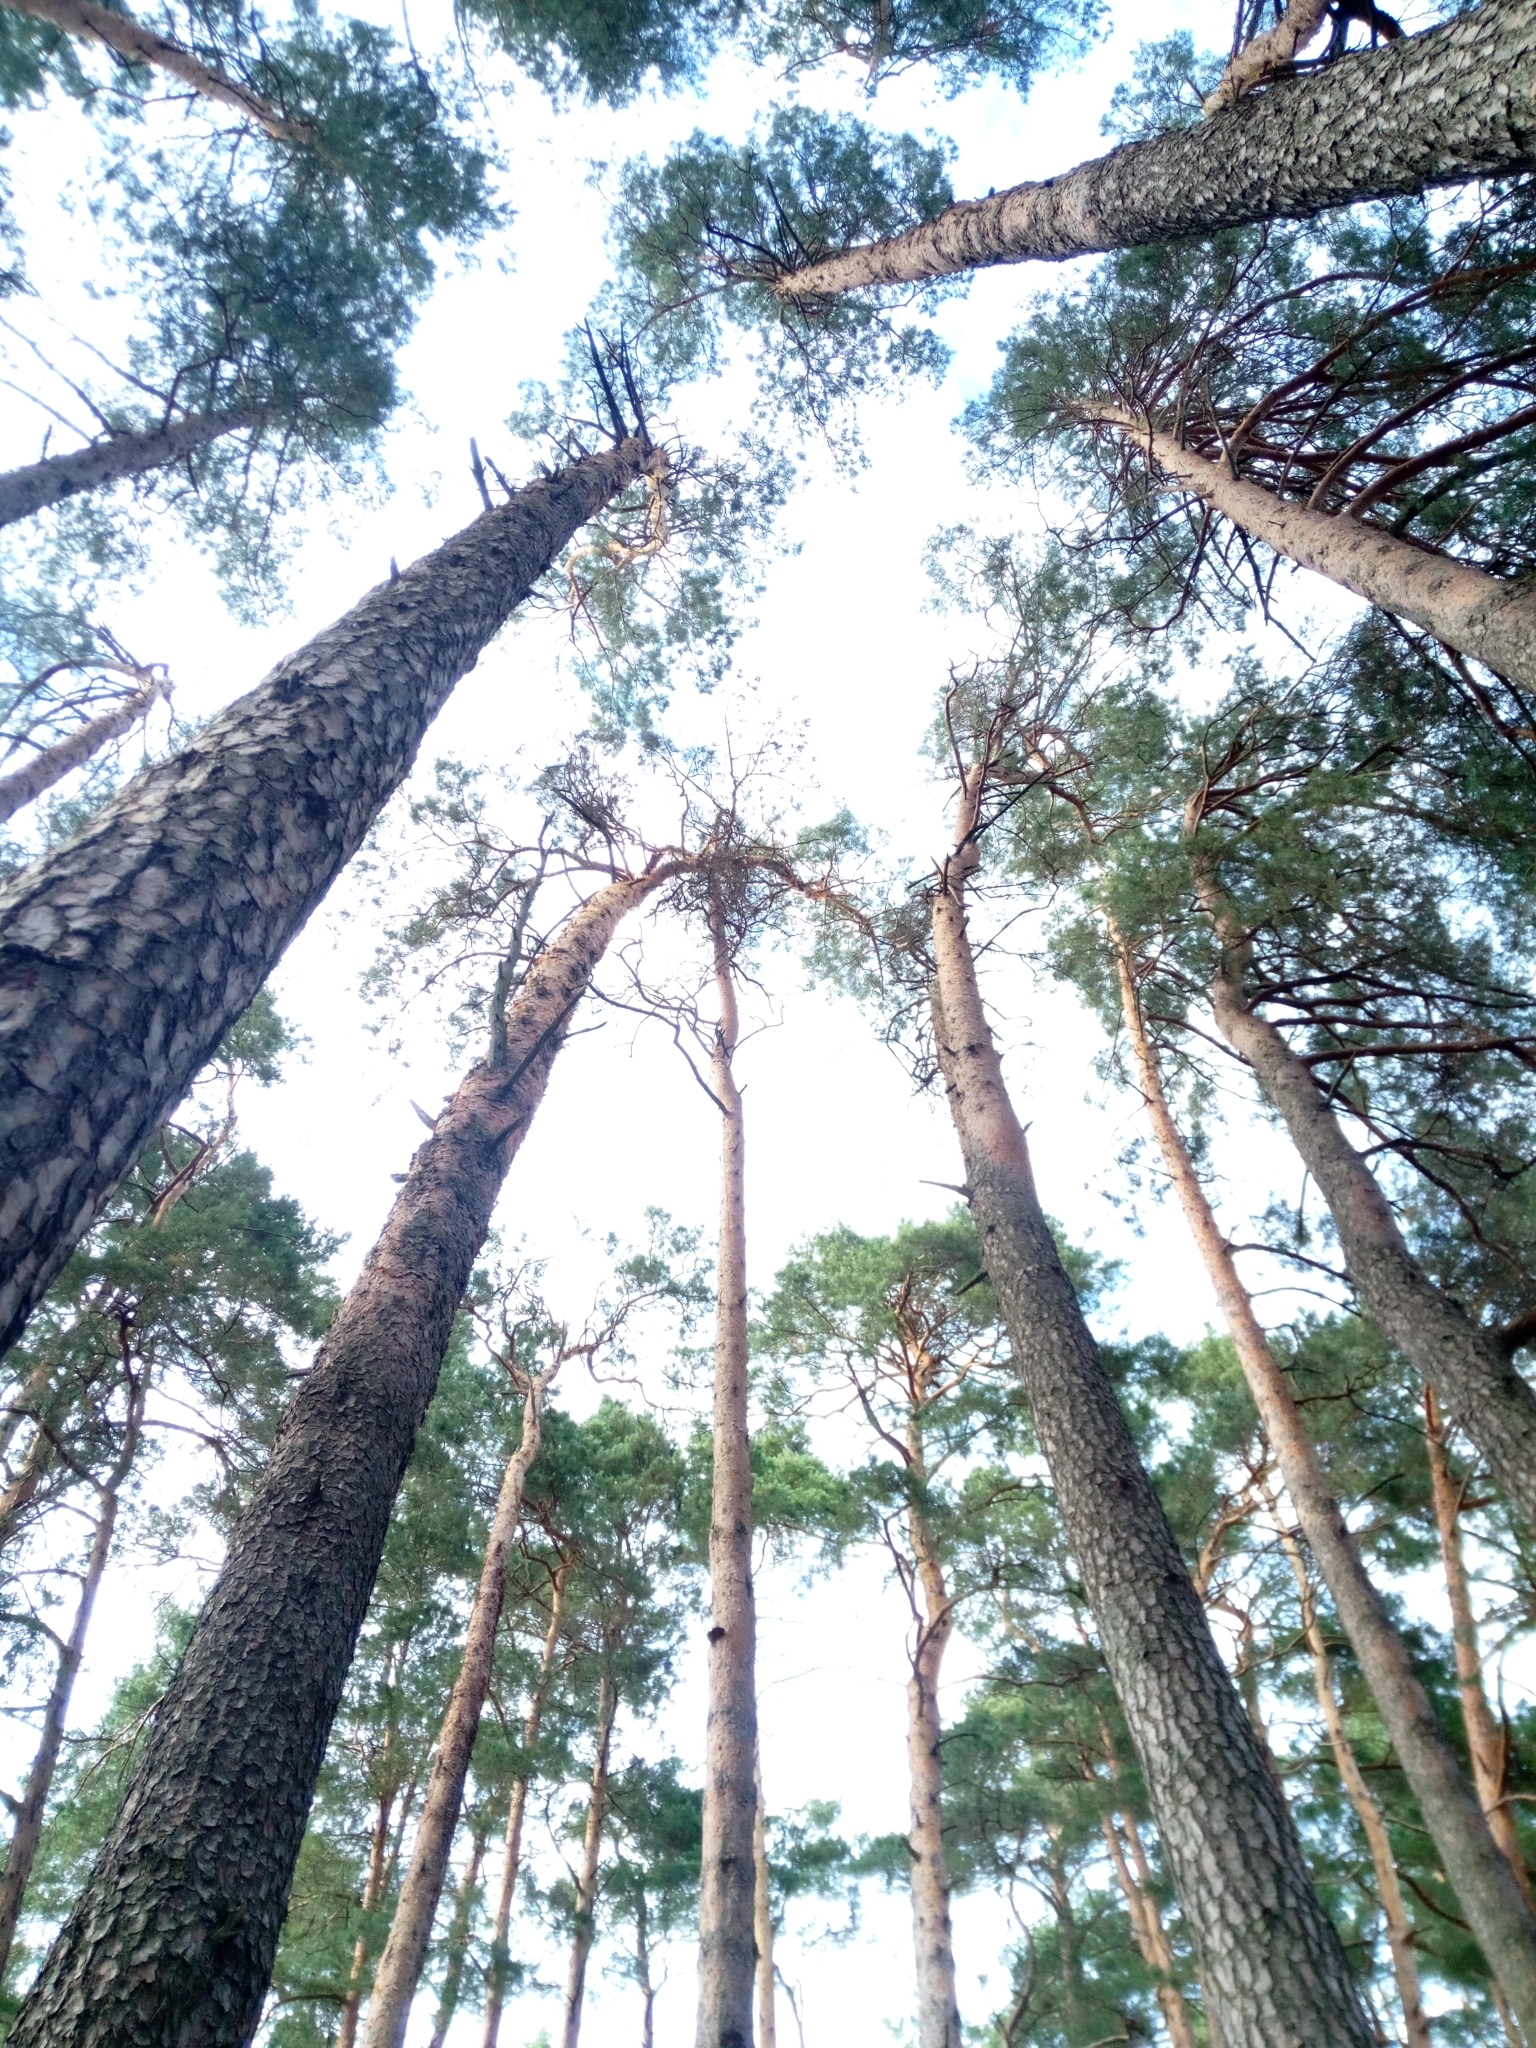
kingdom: Plantae
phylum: Tracheophyta
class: Pinopsida
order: Pinales
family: Pinaceae
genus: Pinus
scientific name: Pinus sylvestris
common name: Scots pine
